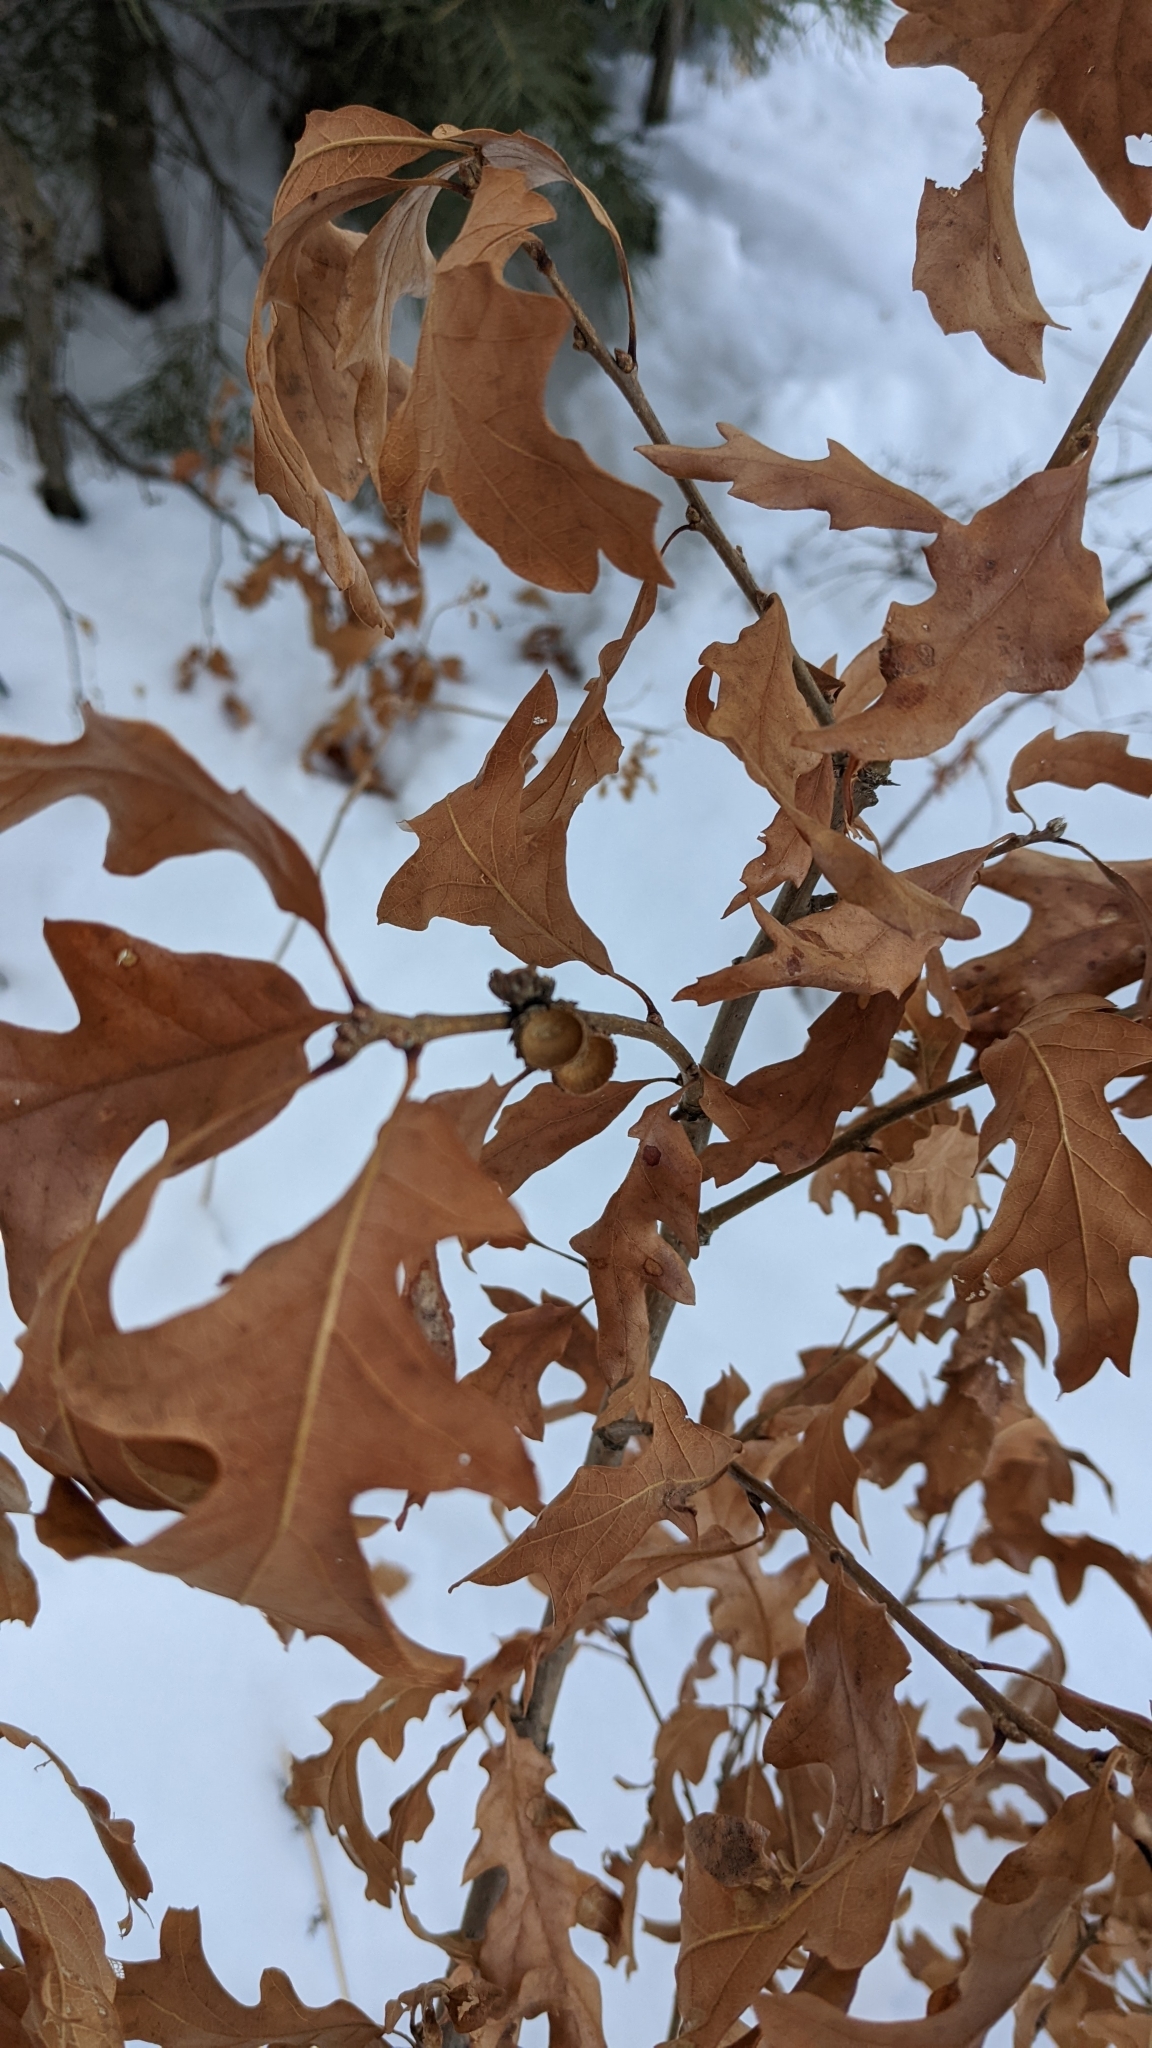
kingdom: Plantae
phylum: Tracheophyta
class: Magnoliopsida
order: Fagales
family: Fagaceae
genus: Quercus
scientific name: Quercus gambelii
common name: Gambel oak
